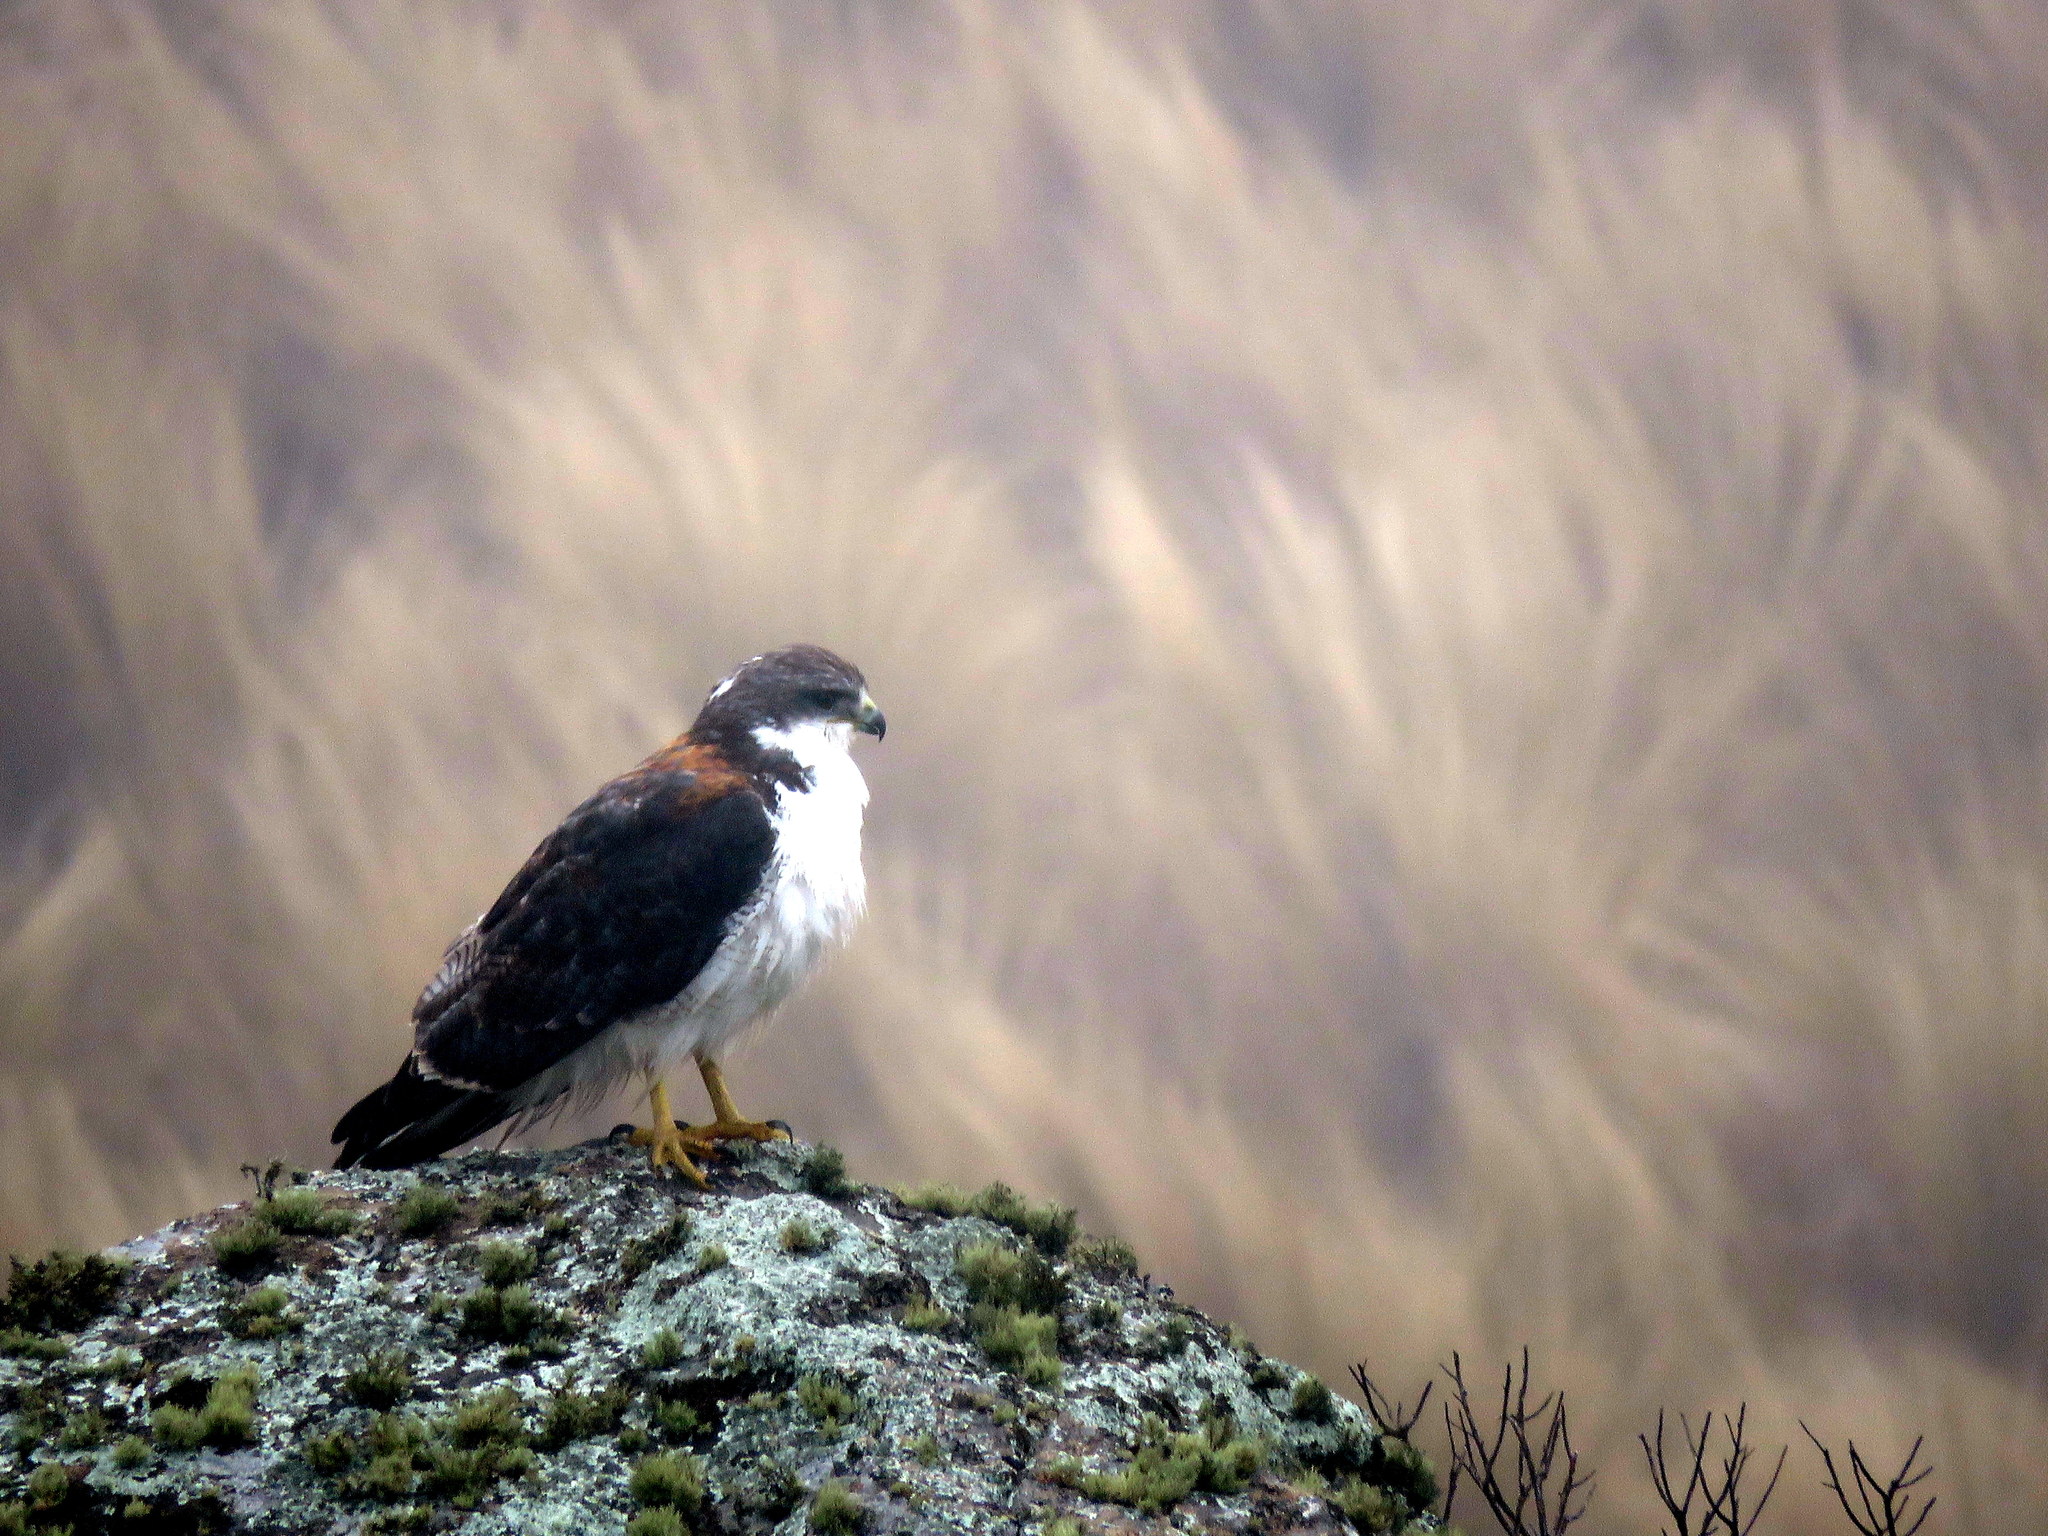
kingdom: Animalia
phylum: Chordata
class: Aves
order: Accipitriformes
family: Accipitridae
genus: Buteo
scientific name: Buteo polyosoma
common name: Variable hawk
